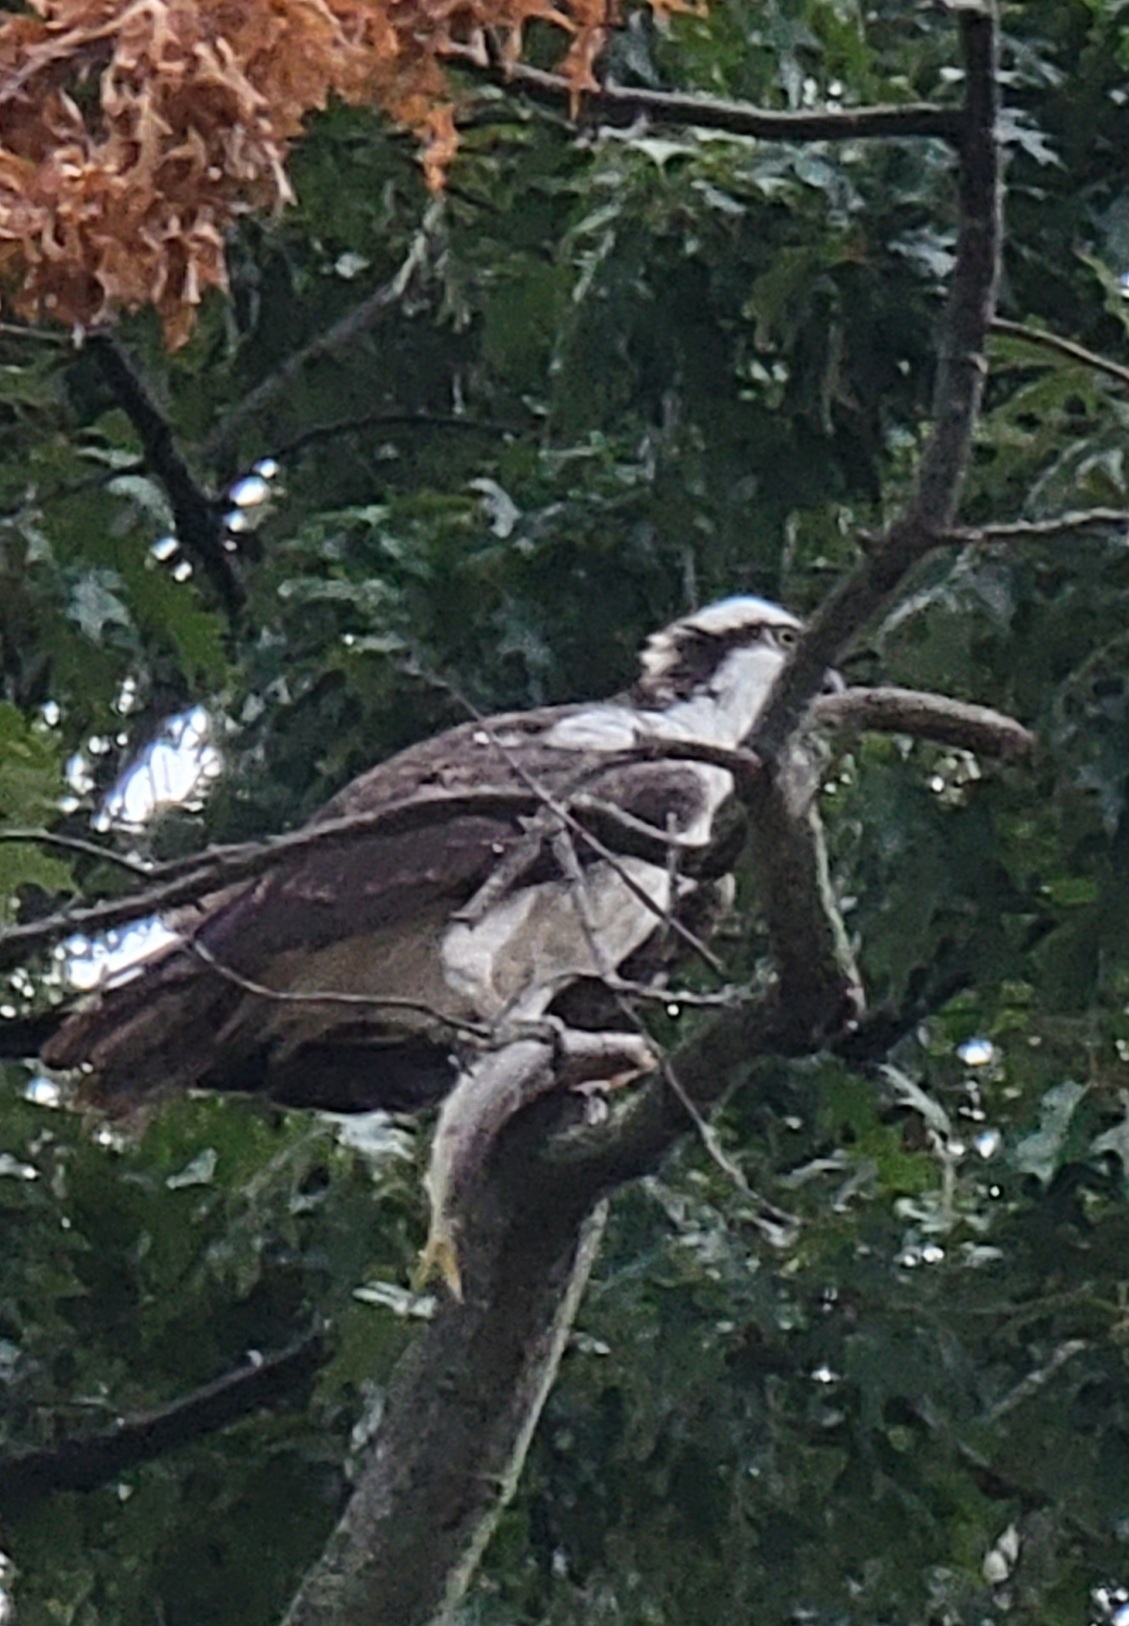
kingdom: Animalia
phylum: Chordata
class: Aves
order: Accipitriformes
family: Pandionidae
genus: Pandion
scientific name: Pandion haliaetus
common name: Osprey
